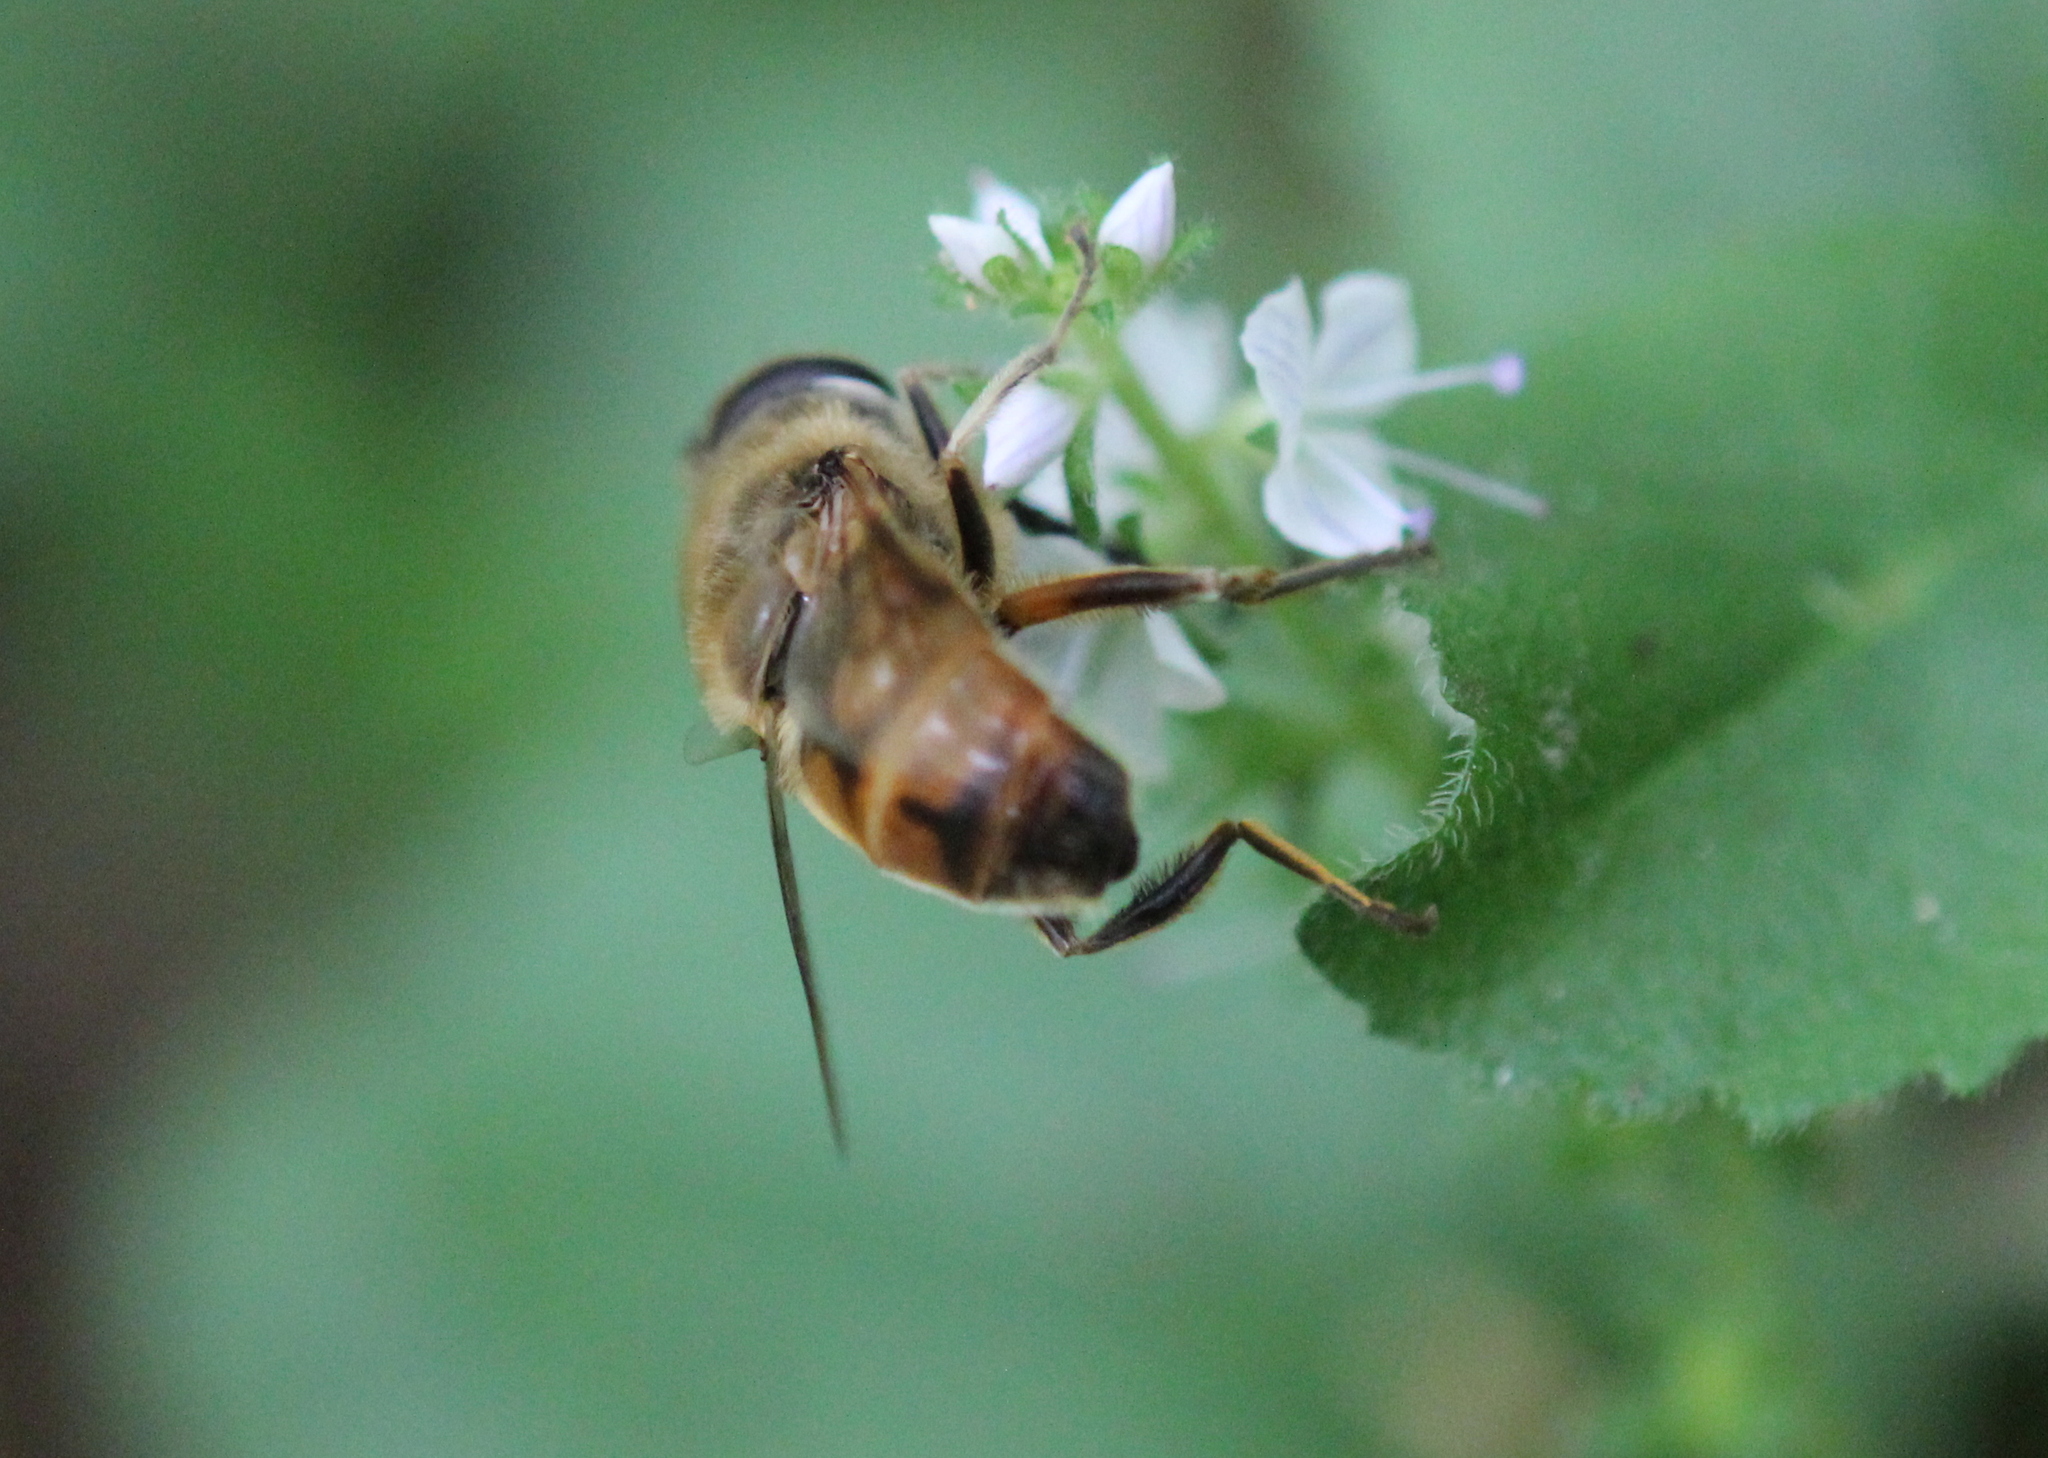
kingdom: Animalia
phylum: Arthropoda
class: Insecta
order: Diptera
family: Syrphidae
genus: Eristalis
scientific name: Eristalis tenax
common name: Drone fly
